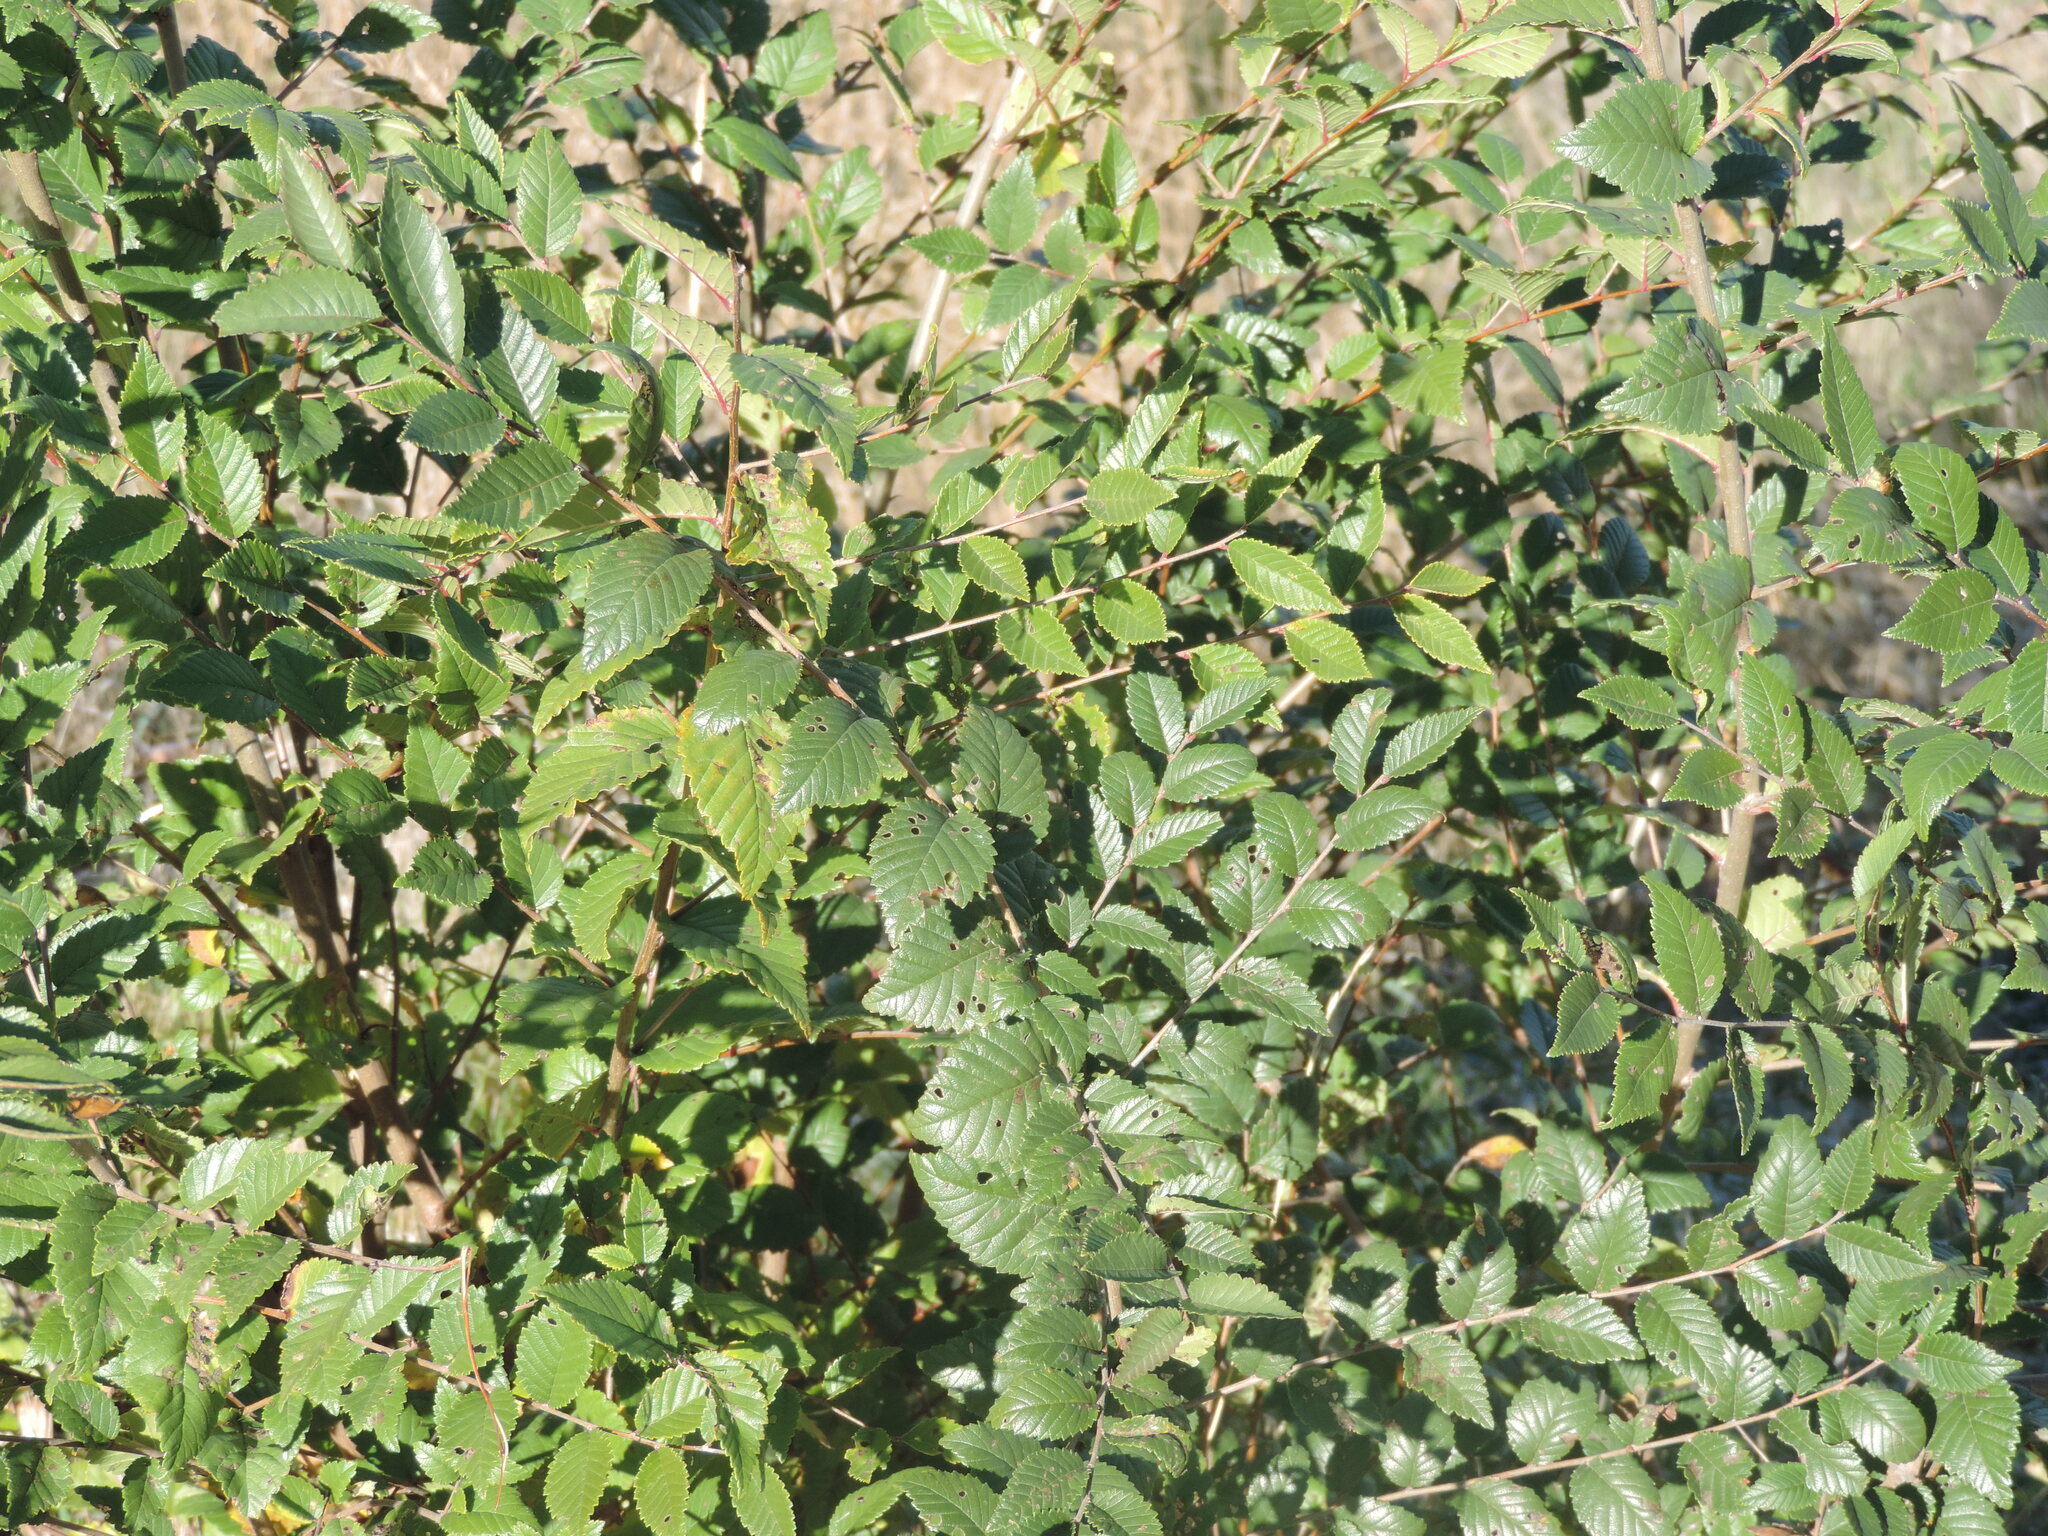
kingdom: Plantae
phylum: Tracheophyta
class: Magnoliopsida
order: Rosales
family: Ulmaceae
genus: Ulmus
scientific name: Ulmus pumila
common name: Siberian elm
